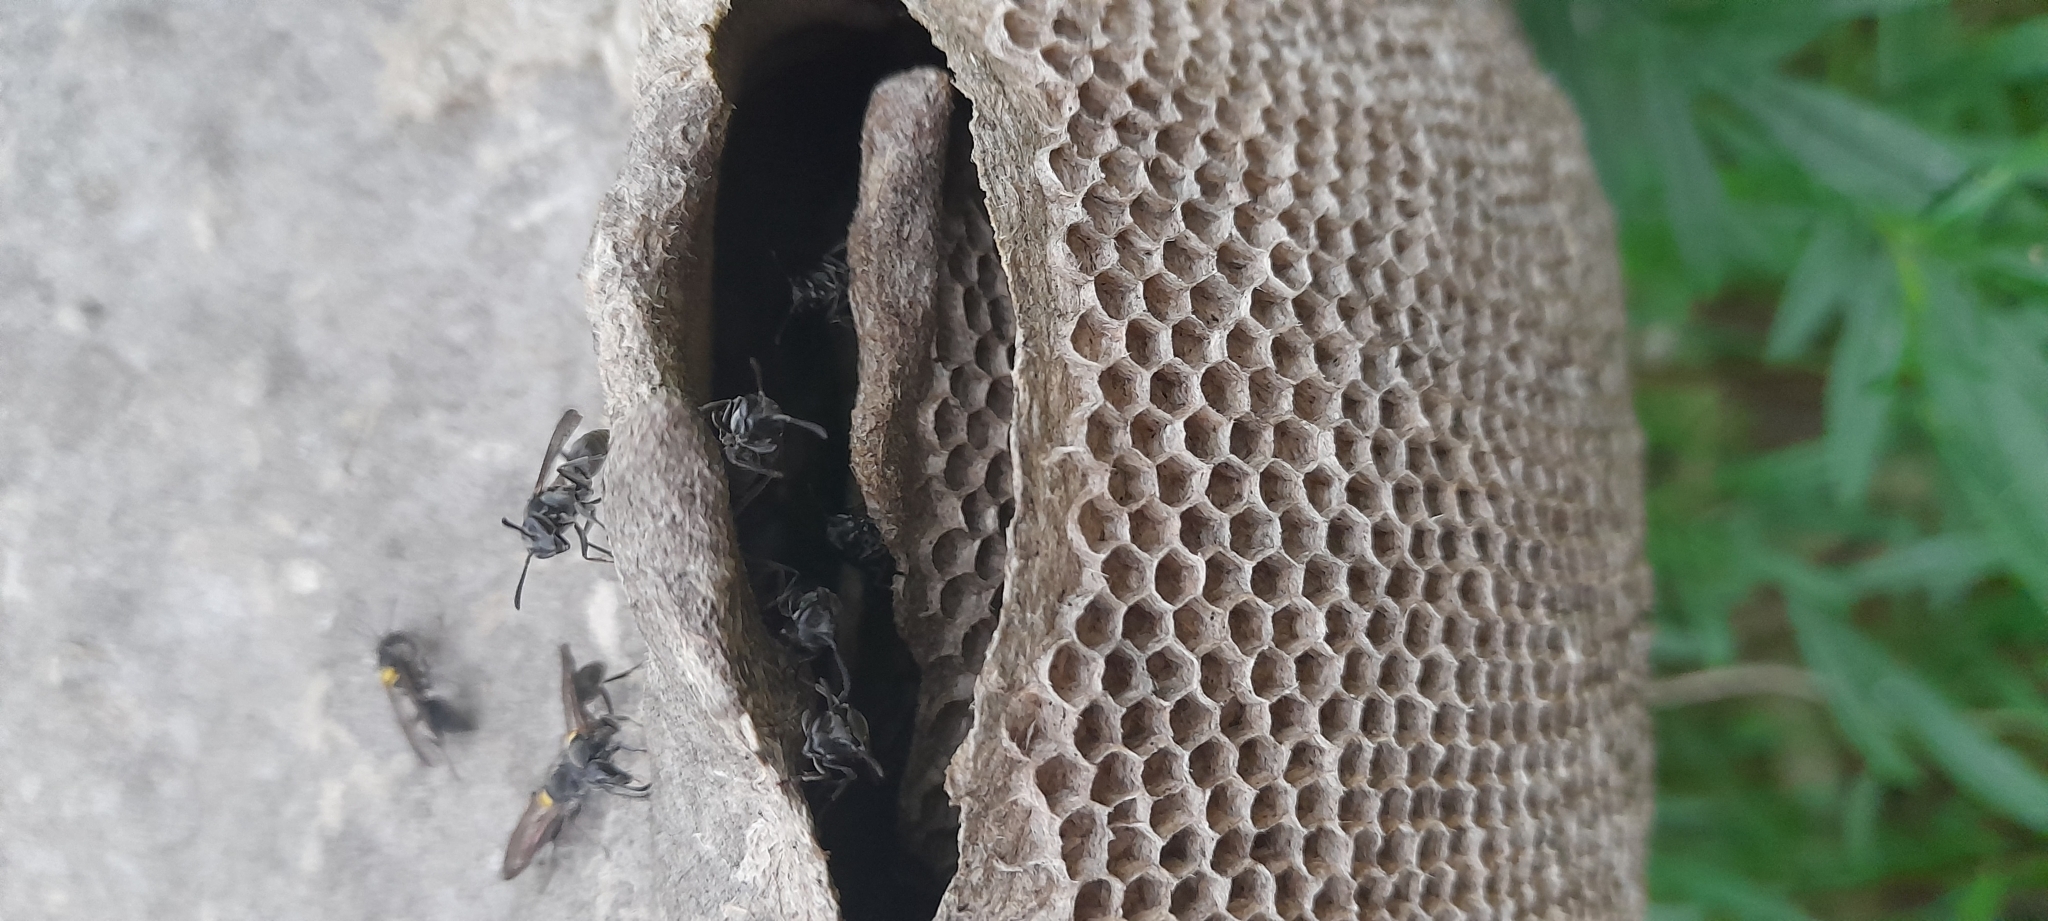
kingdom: Animalia
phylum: Arthropoda
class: Insecta
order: Hymenoptera
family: Eumenidae
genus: Polybia
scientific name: Polybia scutellaris
